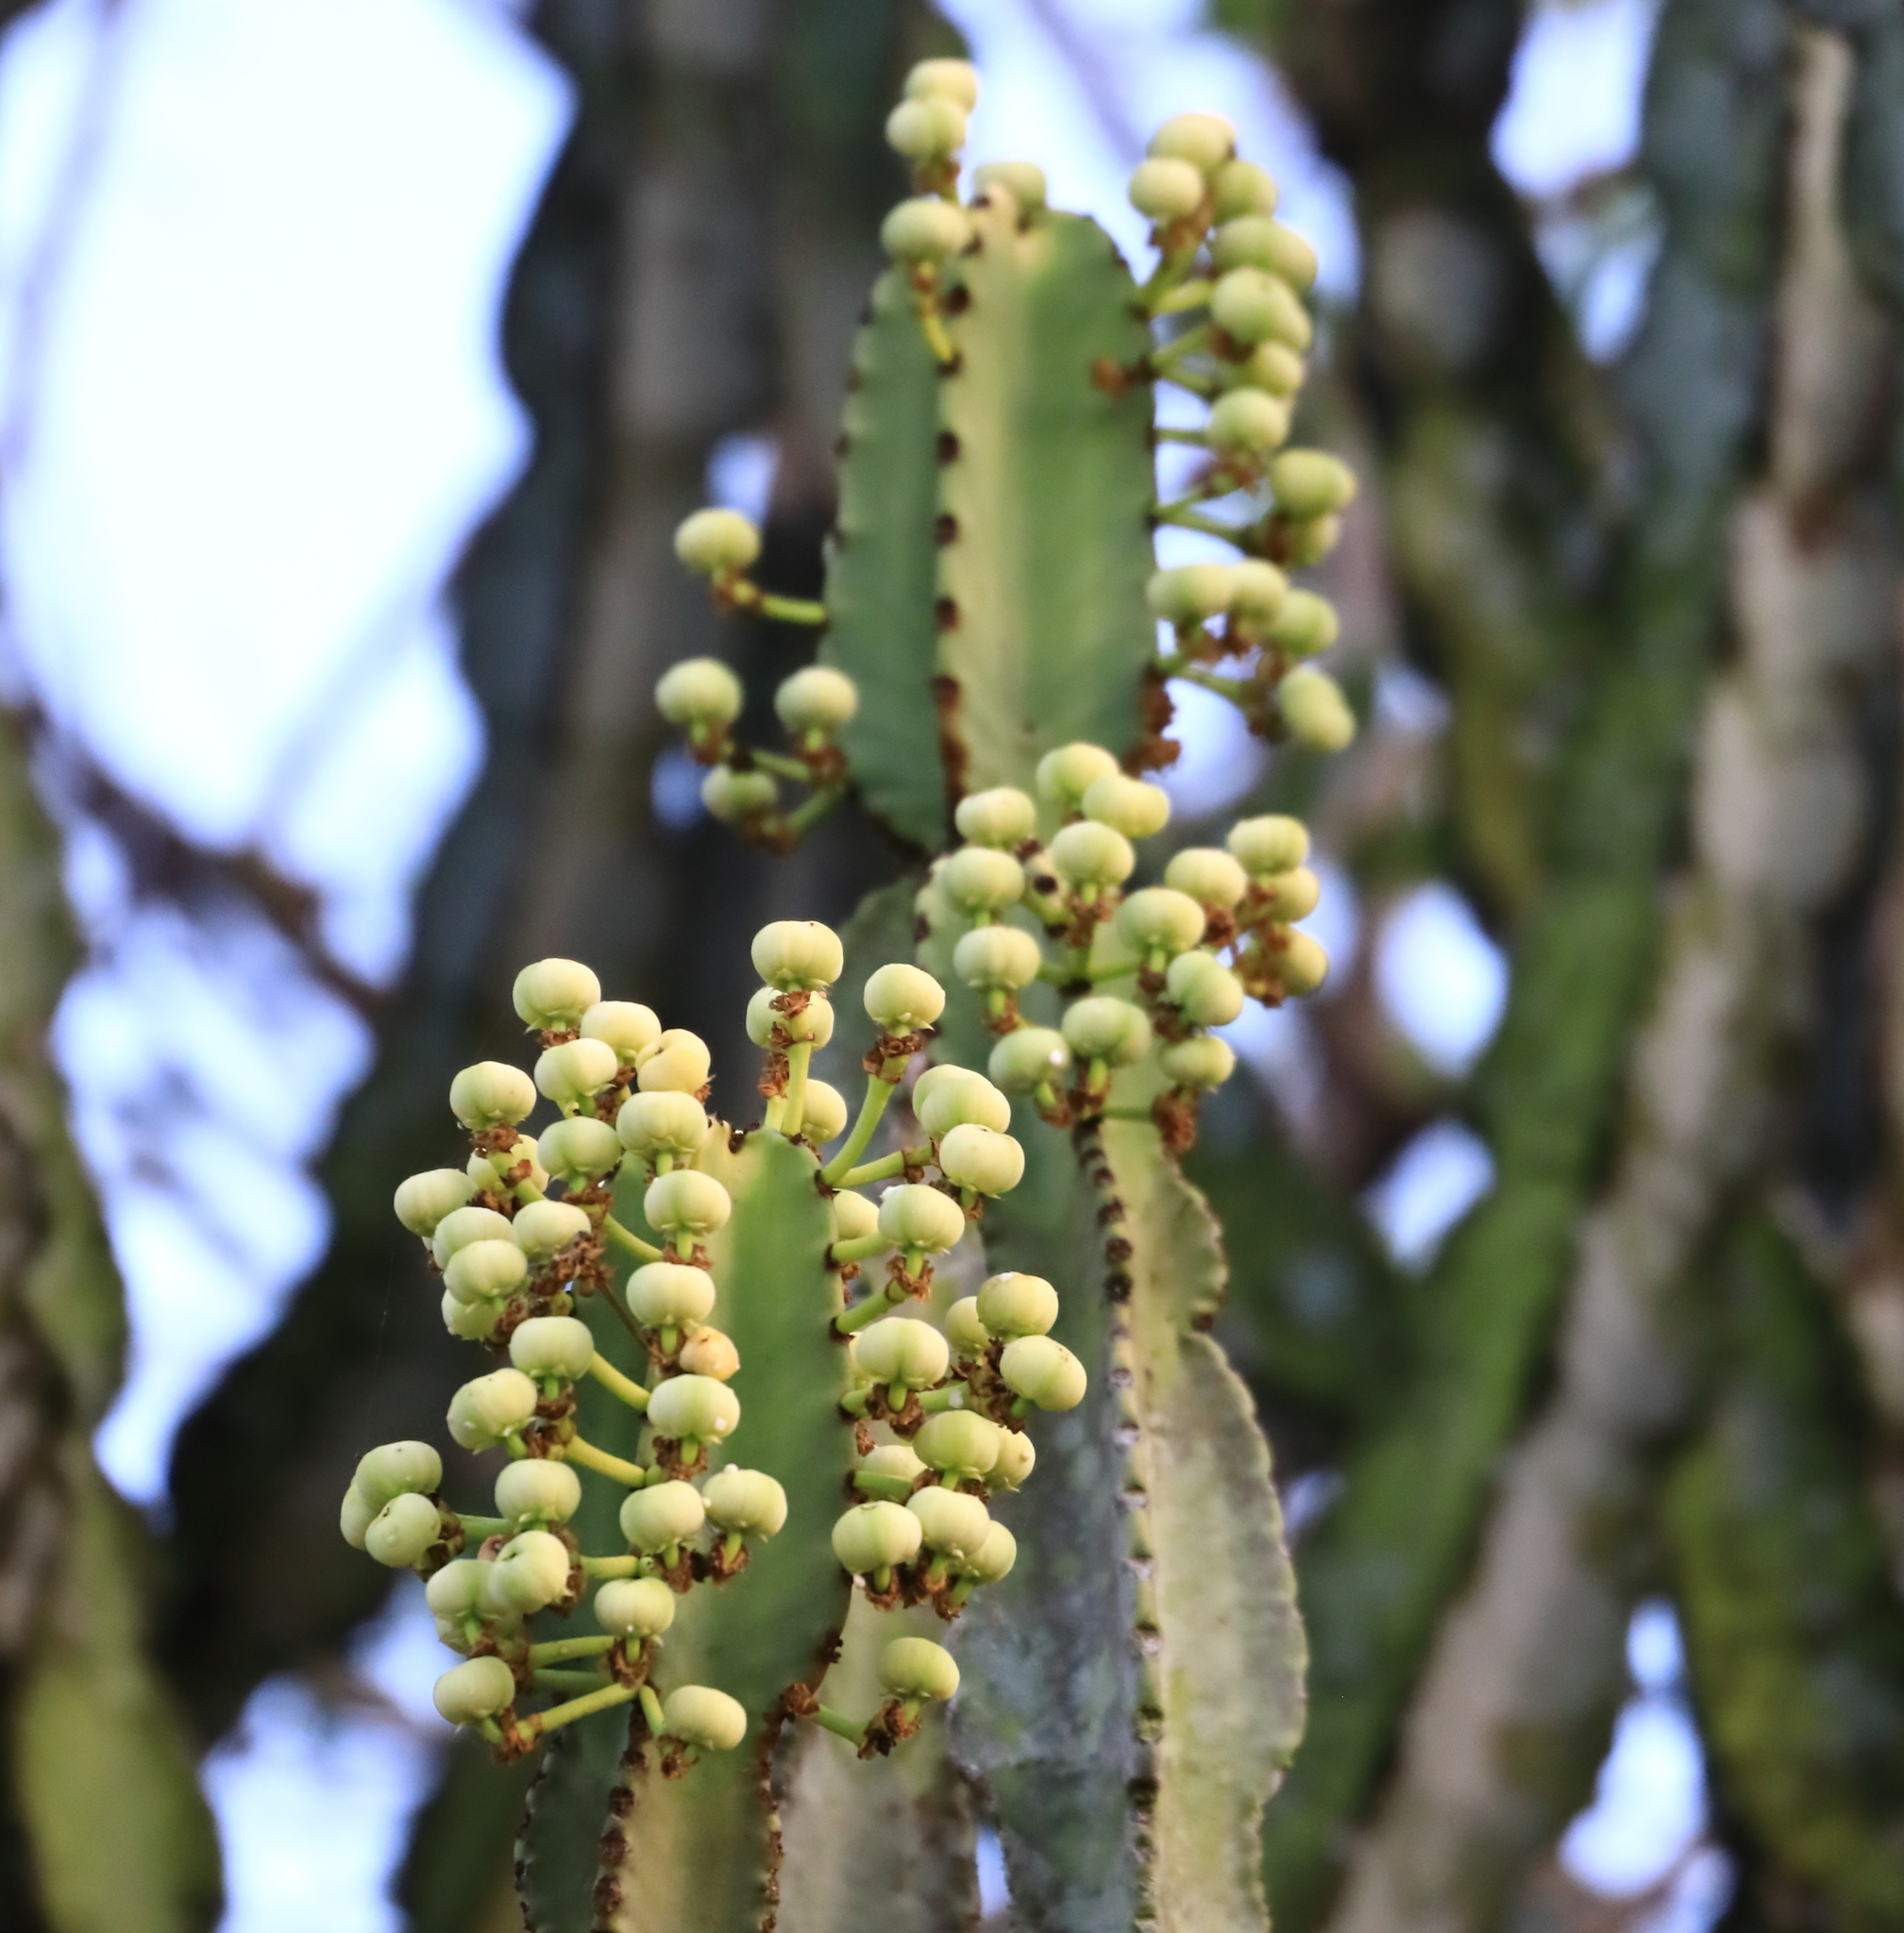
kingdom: Plantae
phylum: Tracheophyta
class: Magnoliopsida
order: Malpighiales
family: Euphorbiaceae
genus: Euphorbia
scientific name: Euphorbia ingens
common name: Cactus spurge
